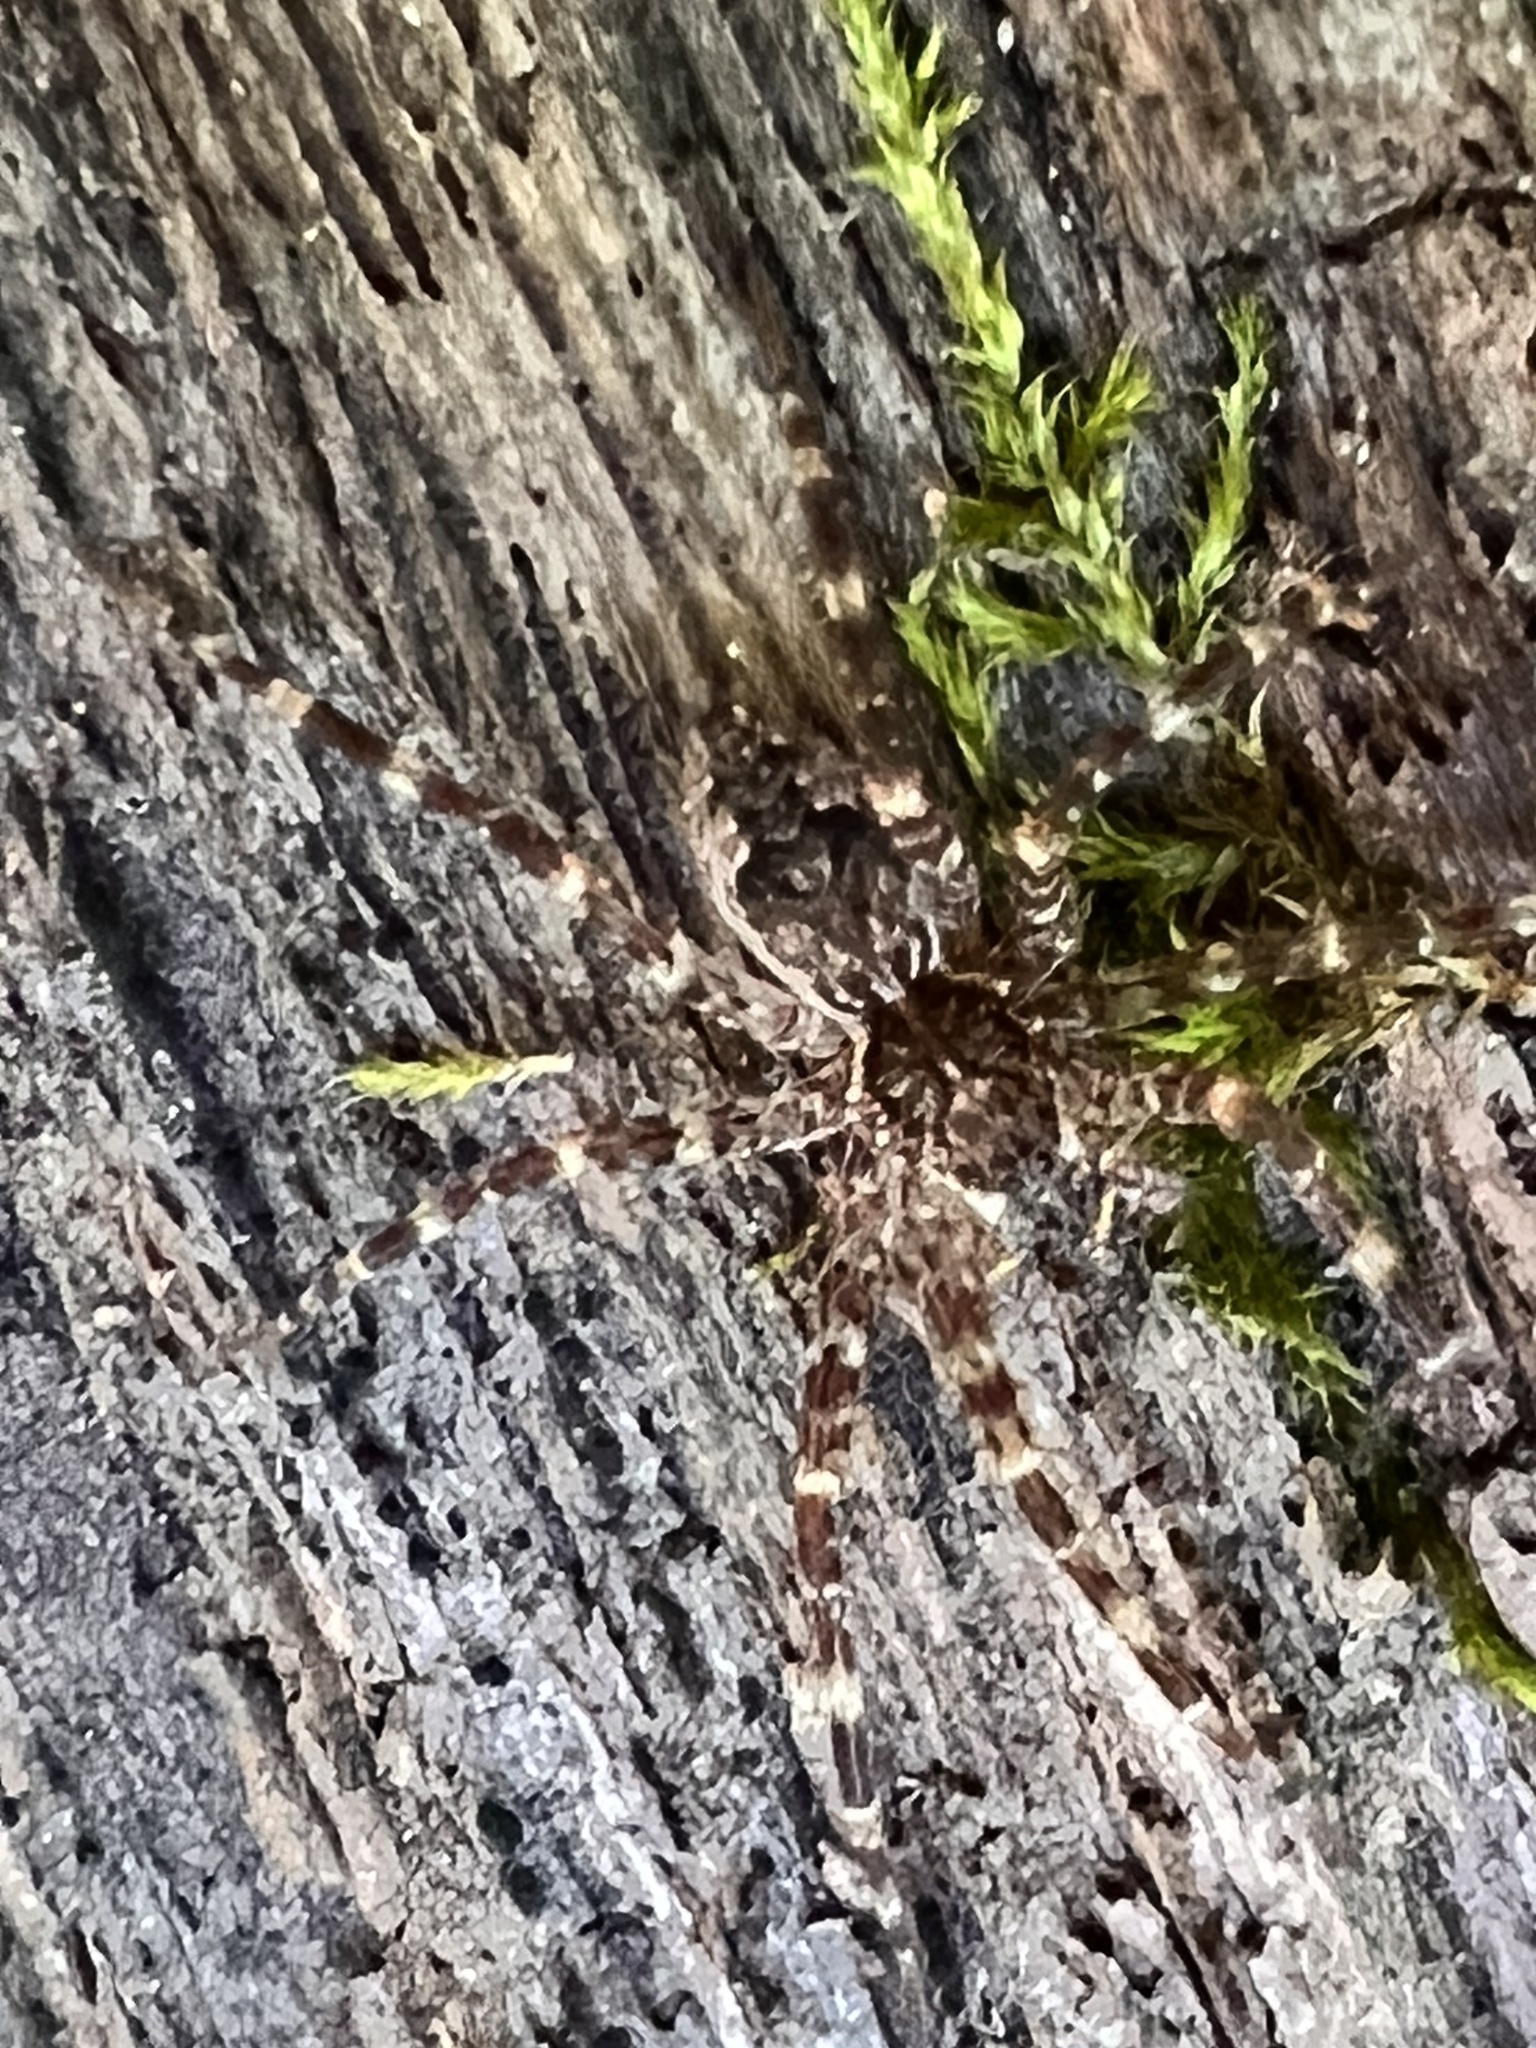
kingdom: Animalia
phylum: Arthropoda
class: Arachnida
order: Araneae
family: Pisauridae
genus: Dolomedes
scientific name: Dolomedes tenebrosus
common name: Dark fishing spider
